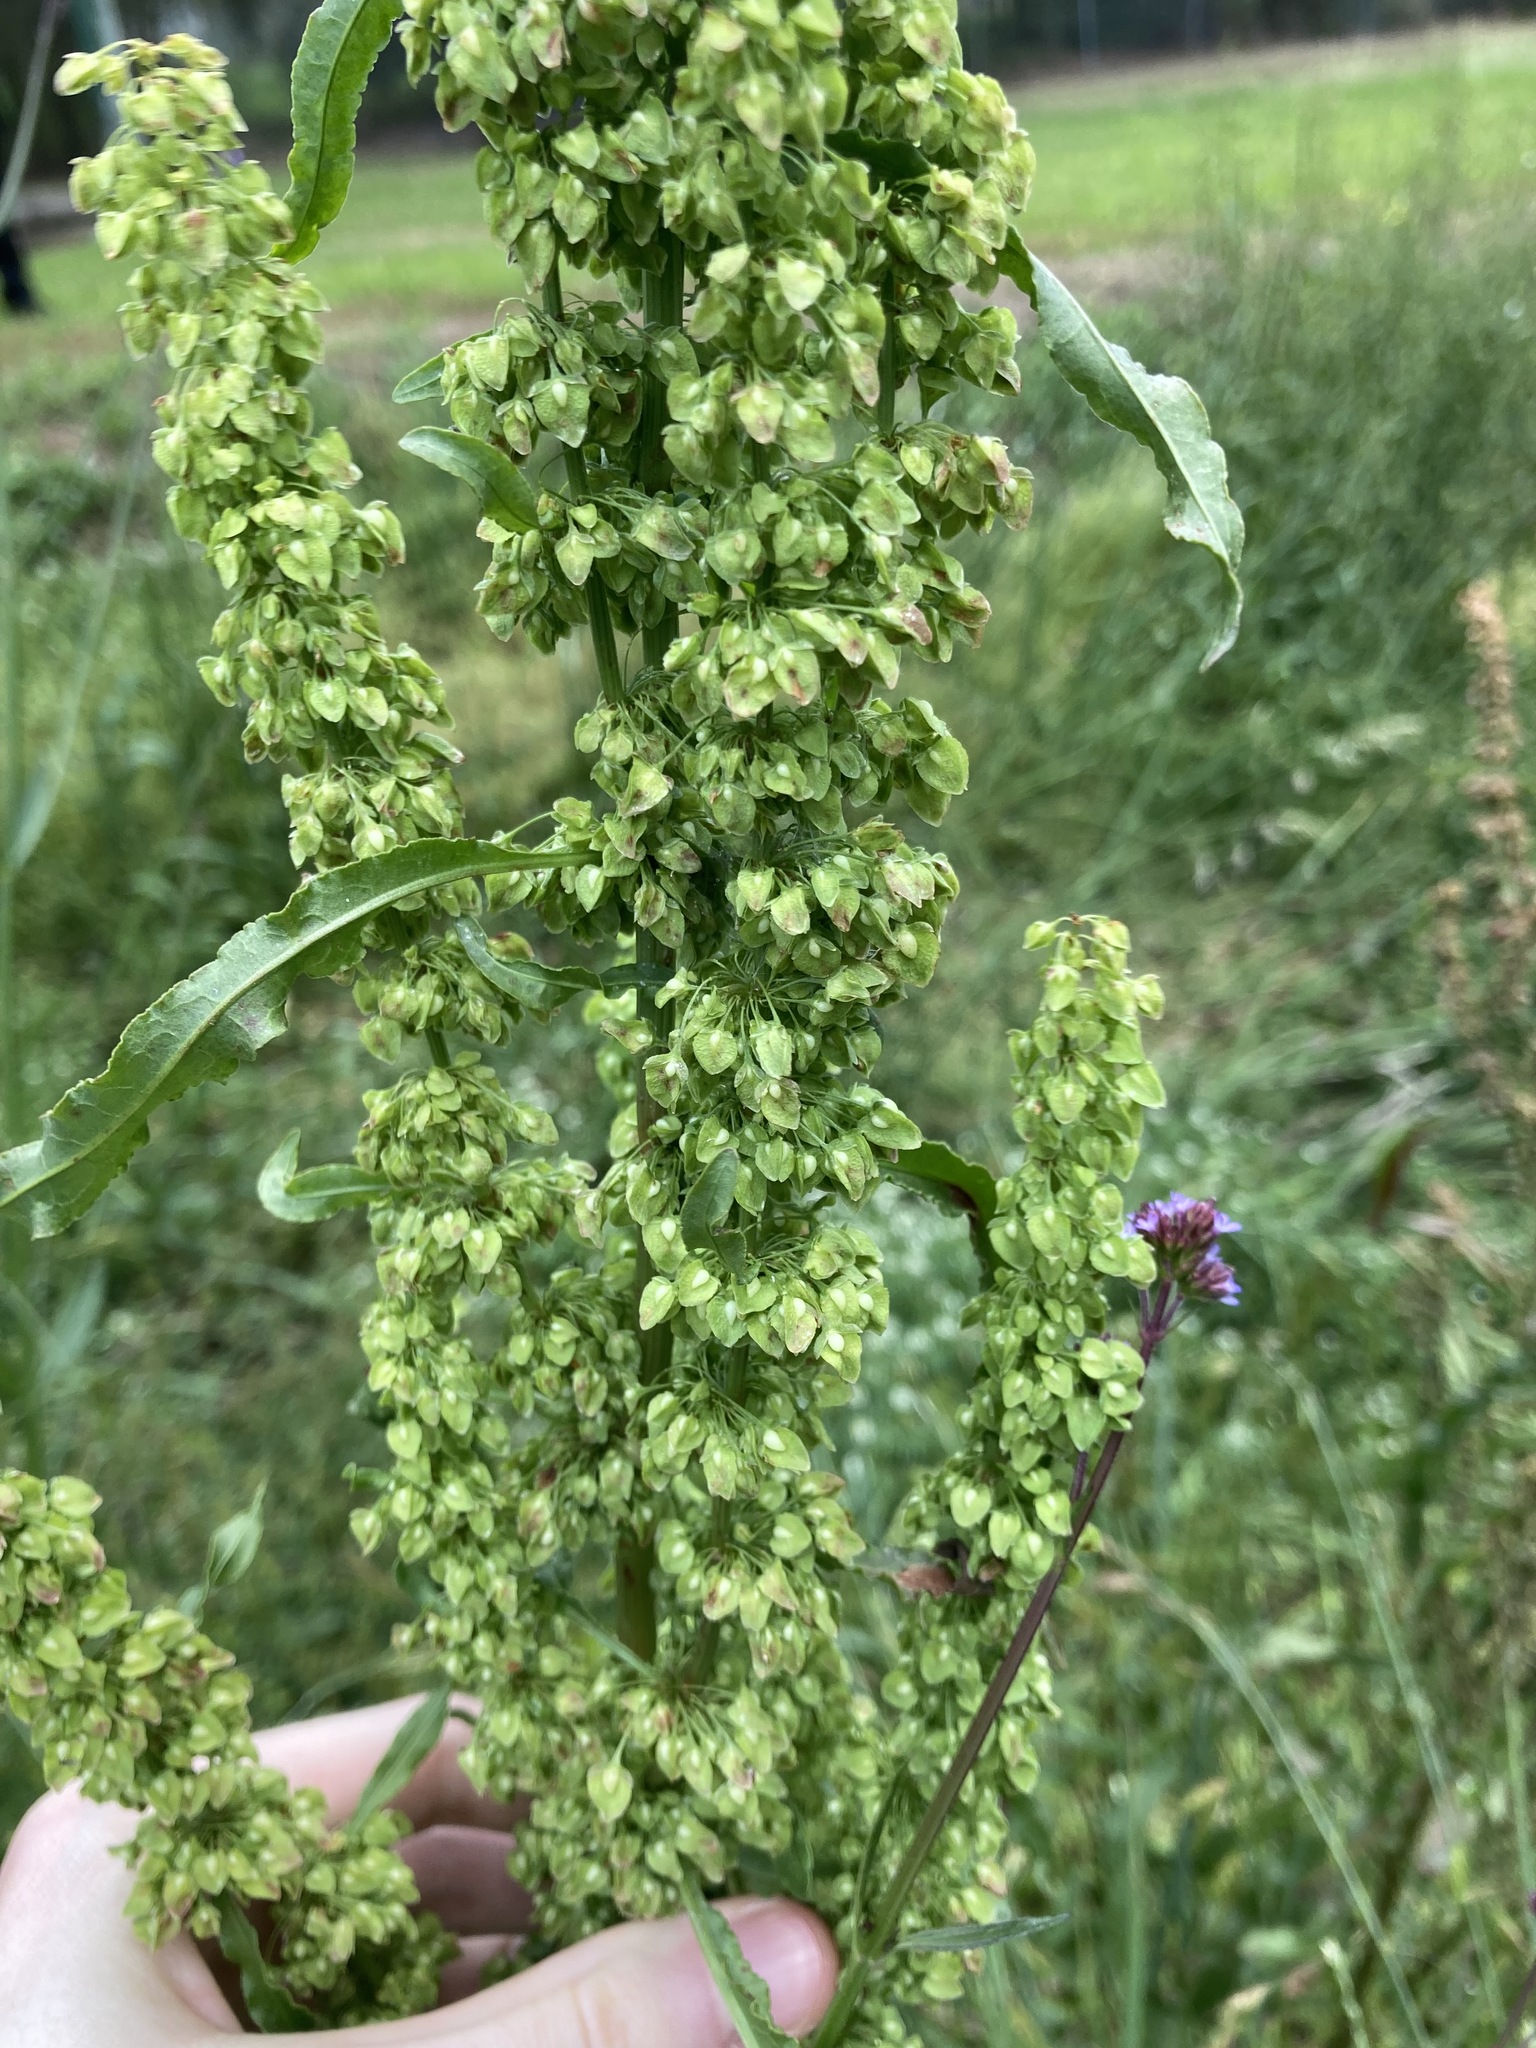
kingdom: Plantae
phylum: Tracheophyta
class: Magnoliopsida
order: Caryophyllales
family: Polygonaceae
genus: Rumex
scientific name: Rumex crispus
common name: Curled dock
